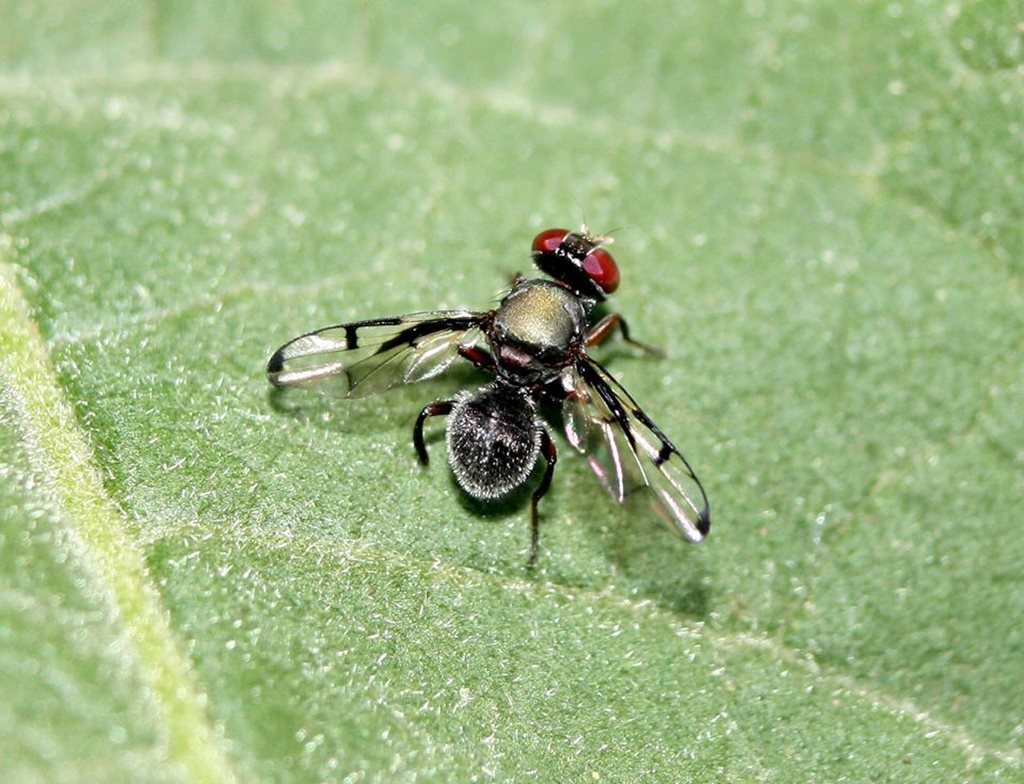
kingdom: Animalia
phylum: Arthropoda
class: Insecta
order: Diptera
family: Platystomatidae
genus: Pogonortalis
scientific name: Pogonortalis doclea
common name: Boatman fly
